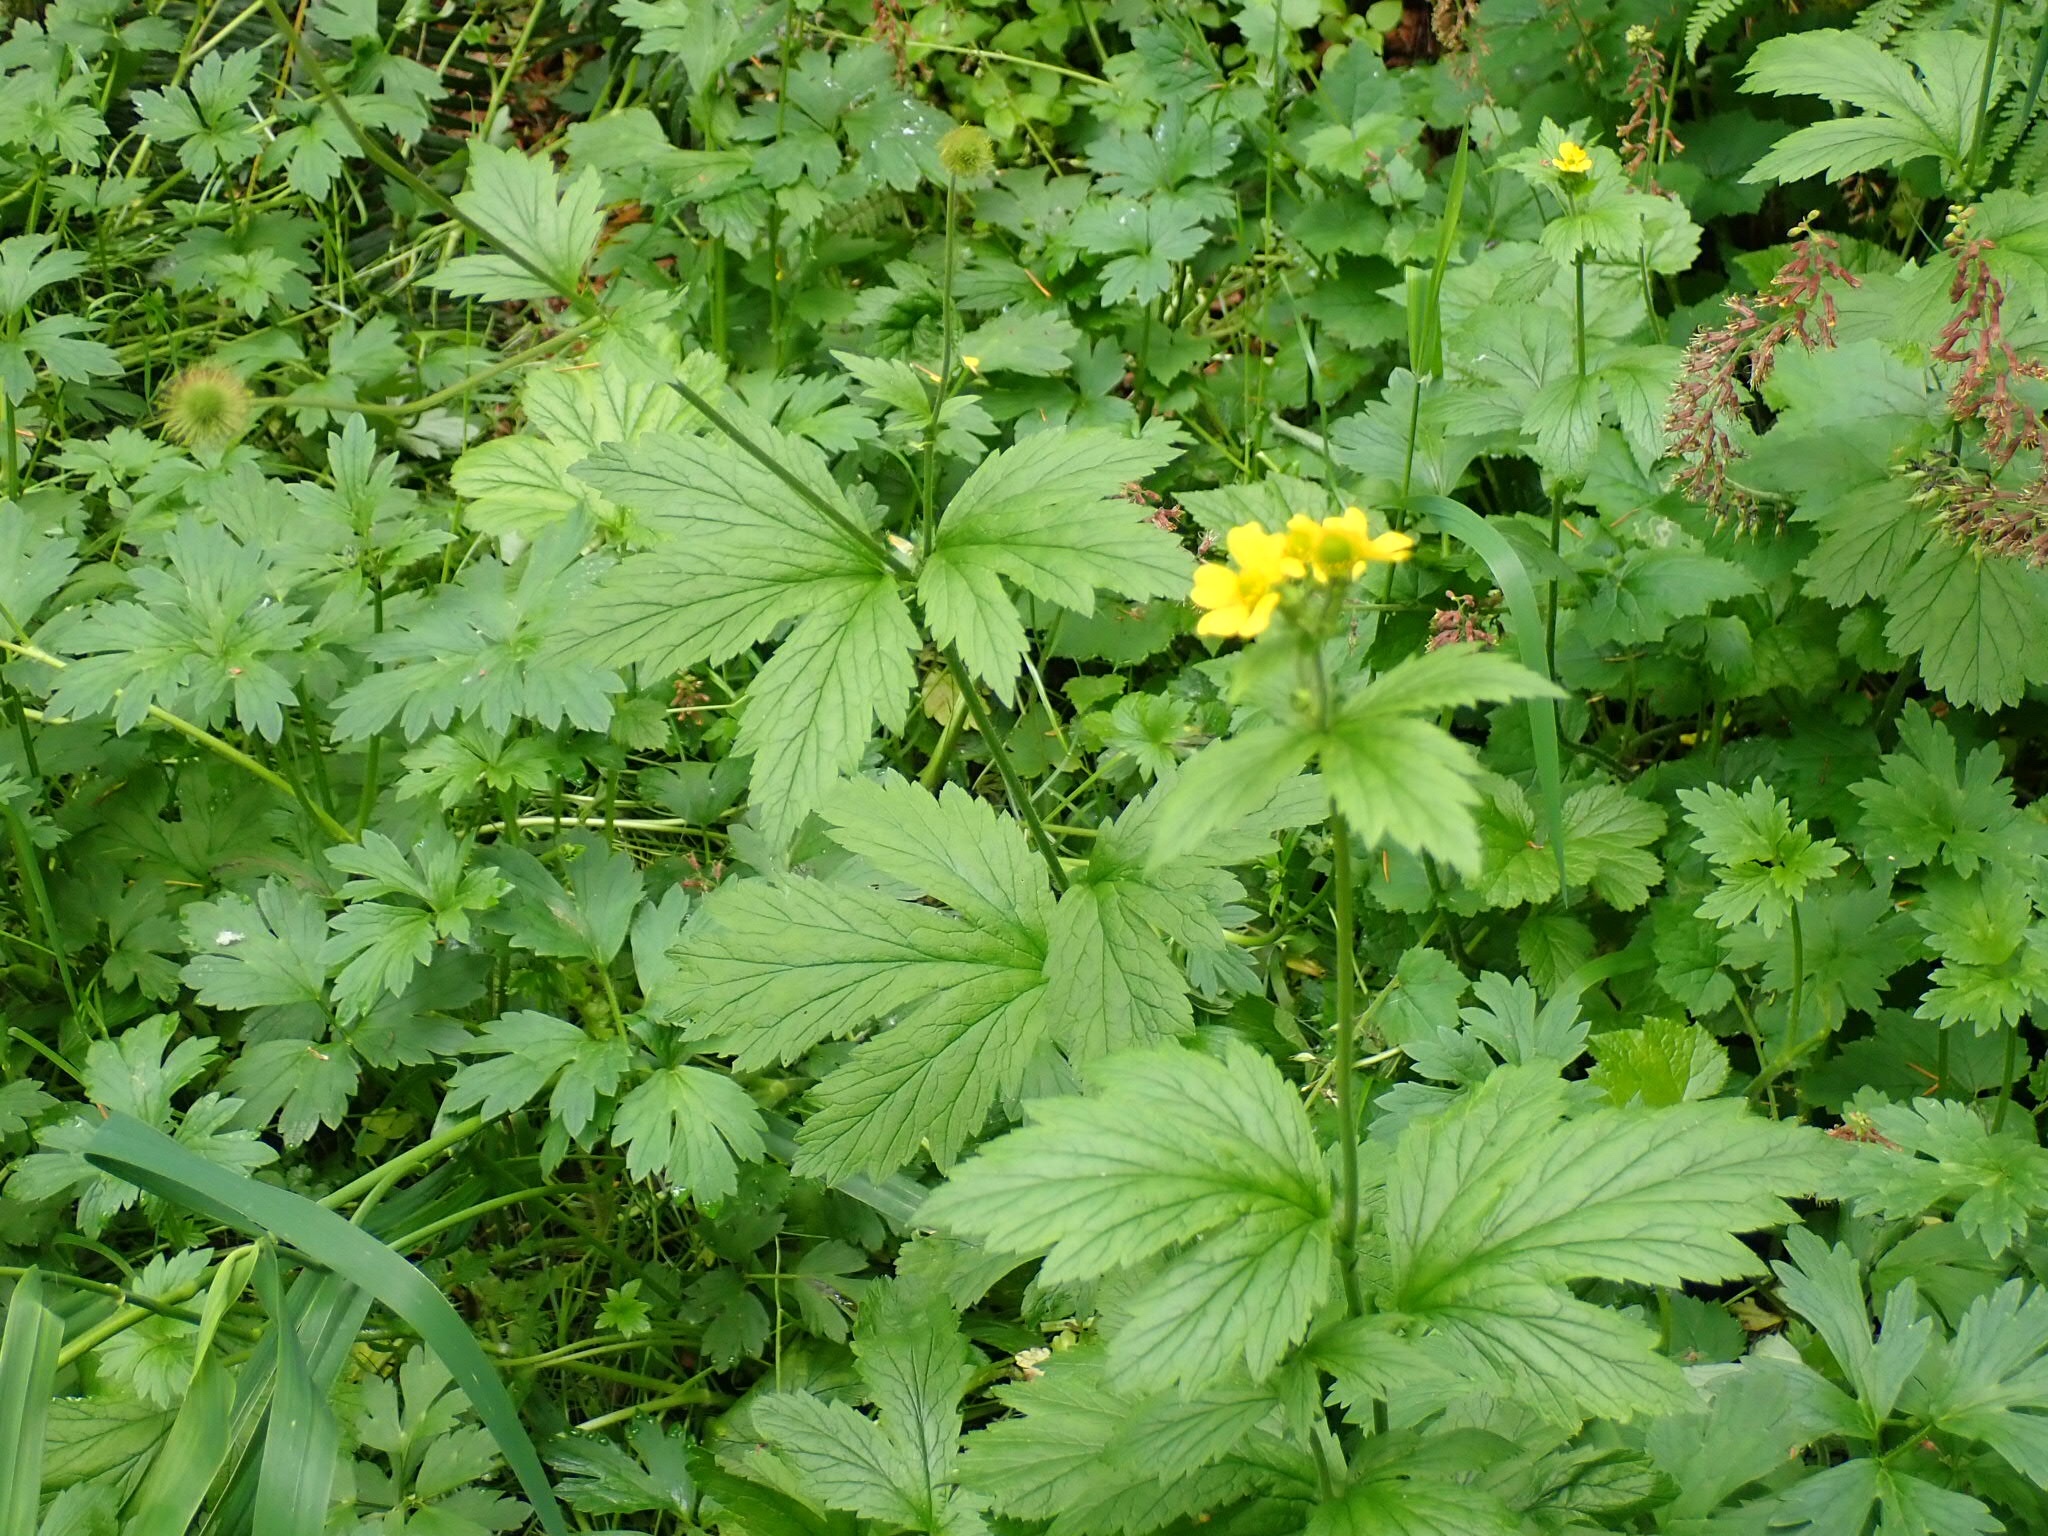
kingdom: Plantae
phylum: Tracheophyta
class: Magnoliopsida
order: Rosales
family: Rosaceae
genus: Geum
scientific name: Geum macrophyllum
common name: Large-leaved avens
